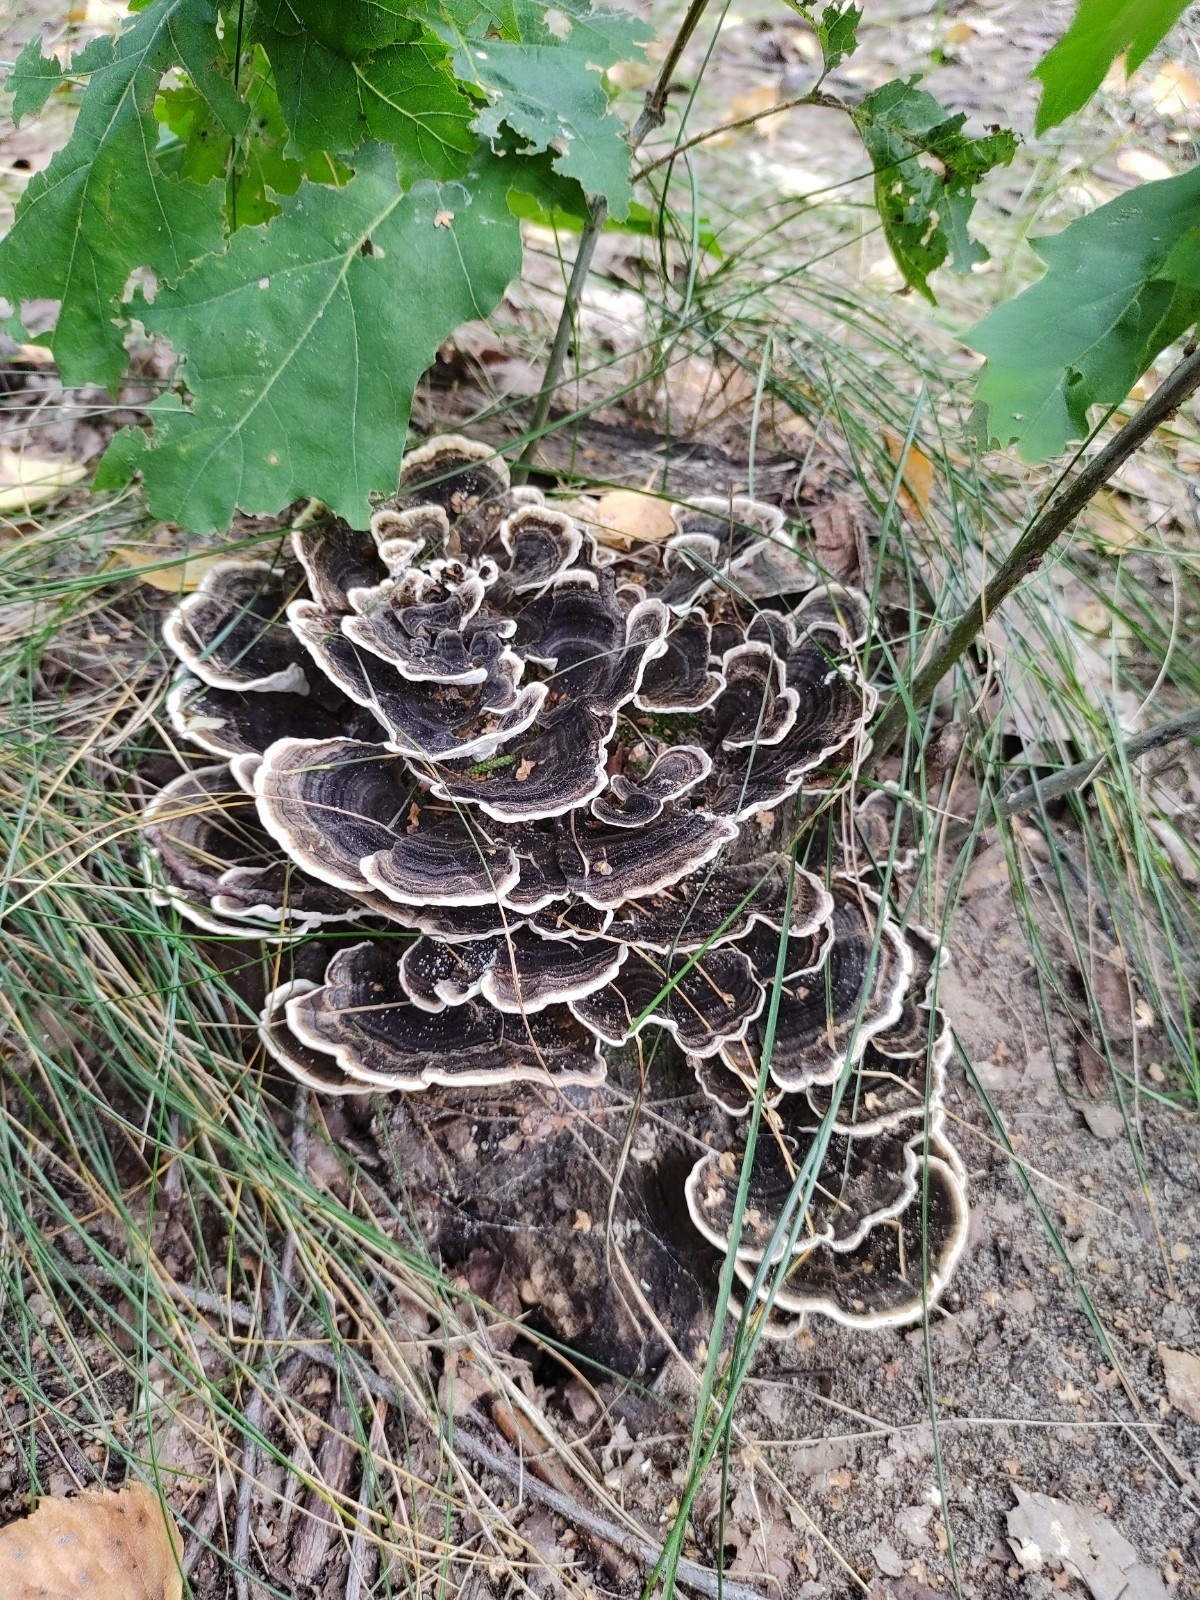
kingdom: Fungi
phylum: Basidiomycota
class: Agaricomycetes
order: Polyporales
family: Polyporaceae
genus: Trametes
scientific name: Trametes versicolor
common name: Turkeytail
